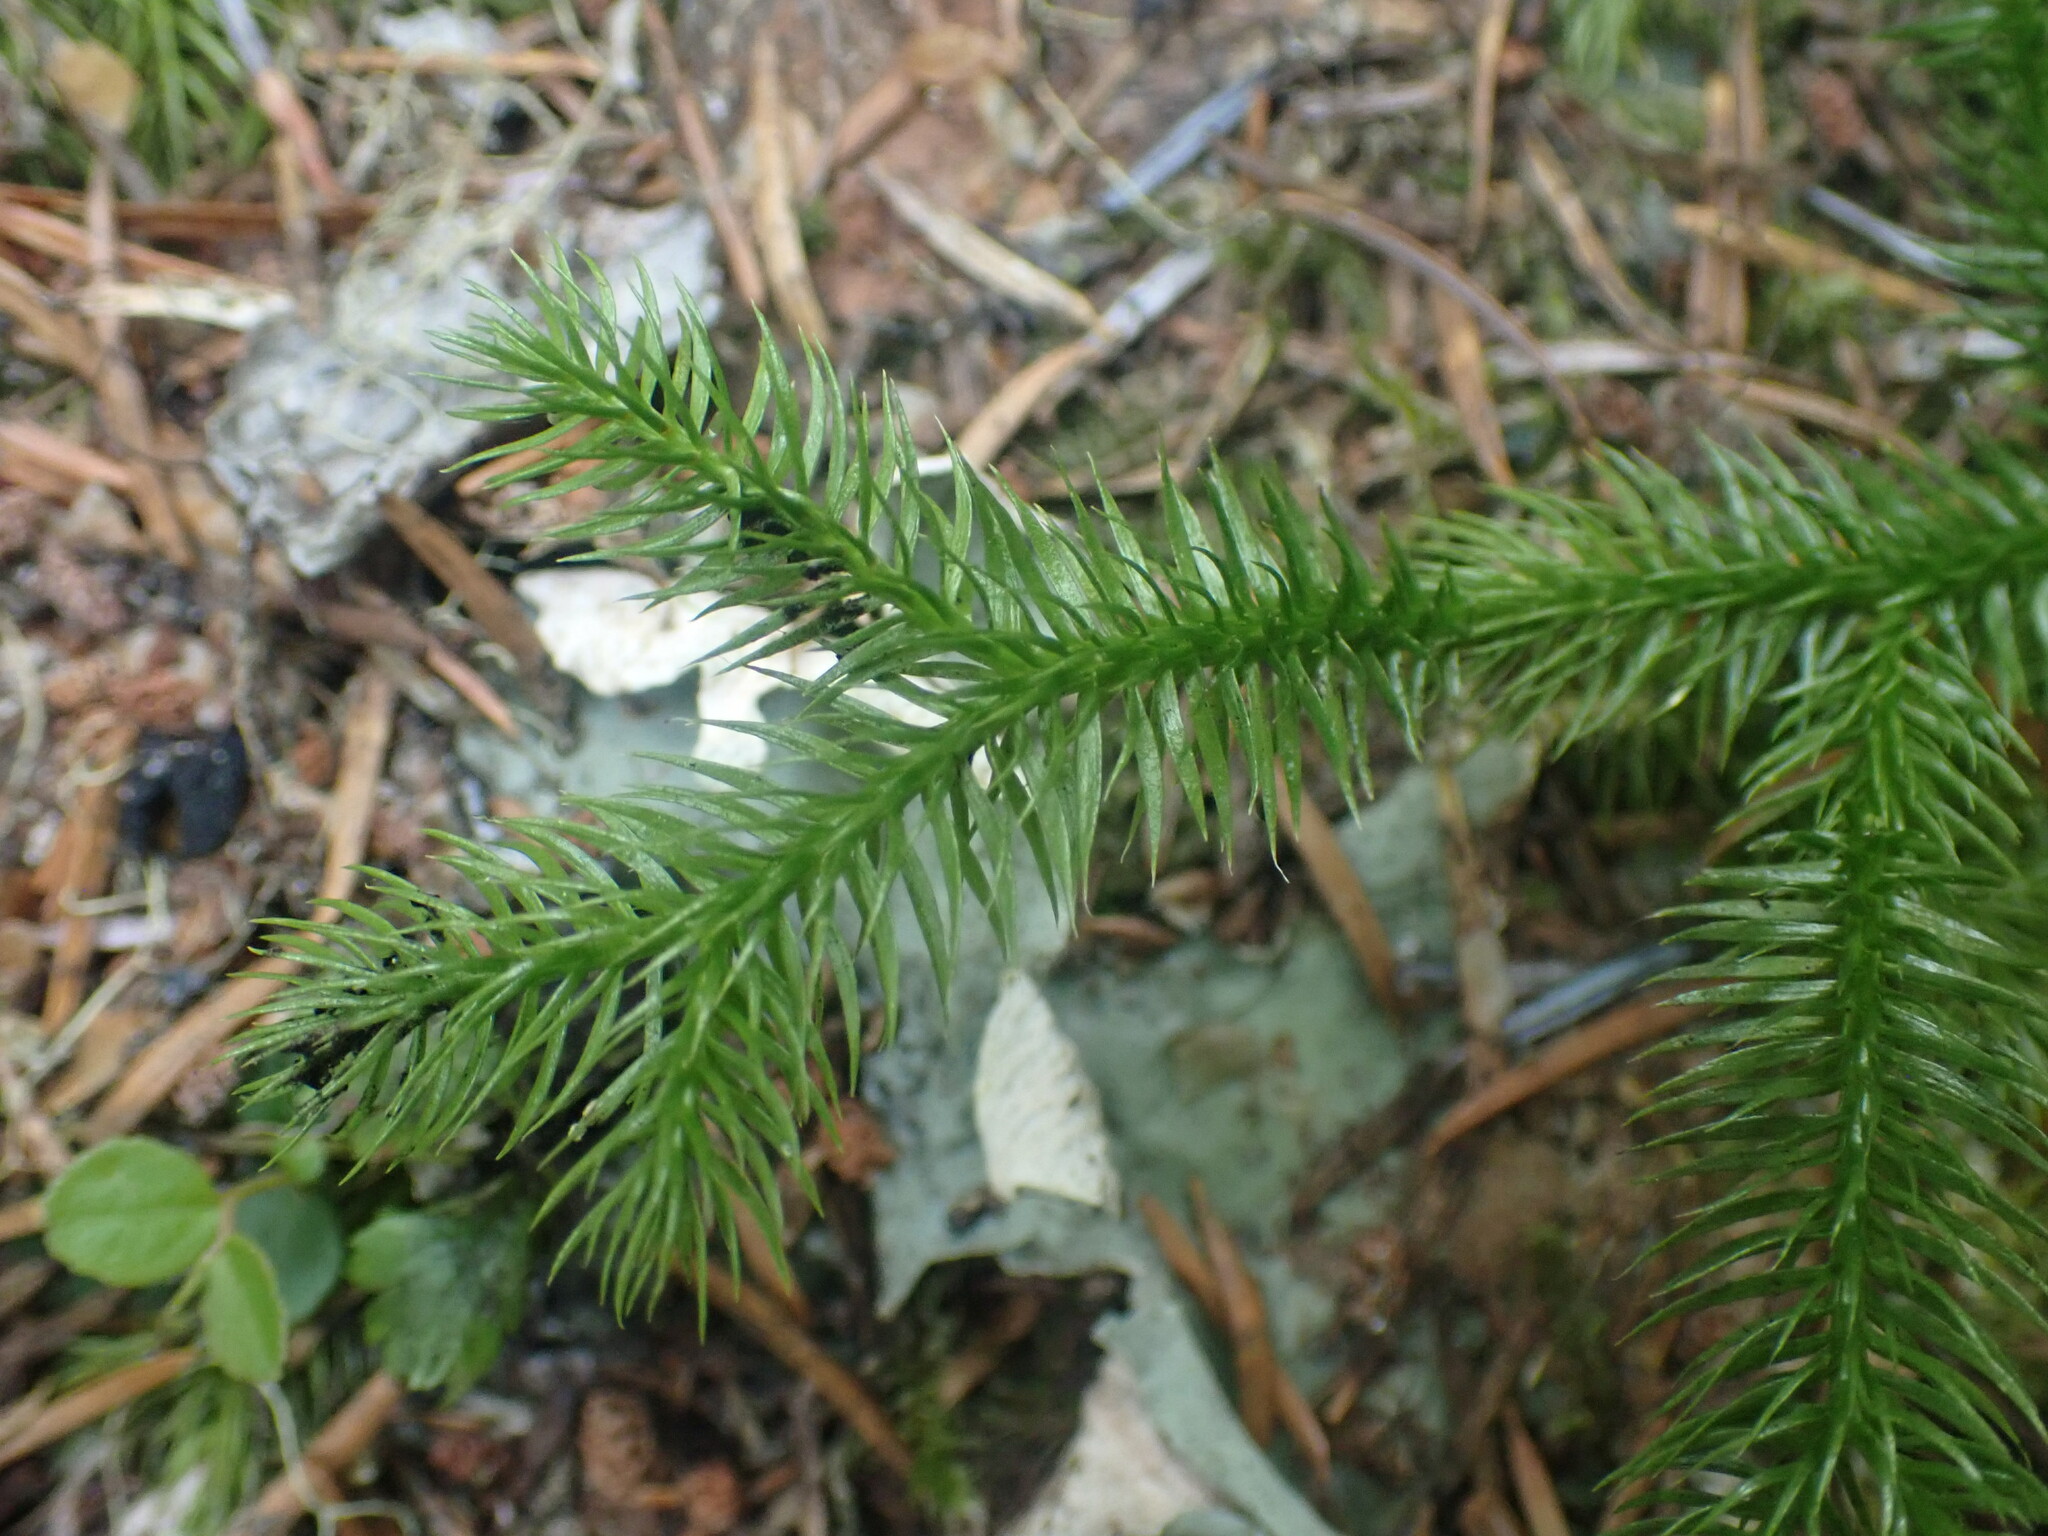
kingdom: Plantae
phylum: Tracheophyta
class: Lycopodiopsida
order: Lycopodiales
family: Lycopodiaceae
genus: Lycopodium
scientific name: Lycopodium clavatum
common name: Stag's-horn clubmoss
